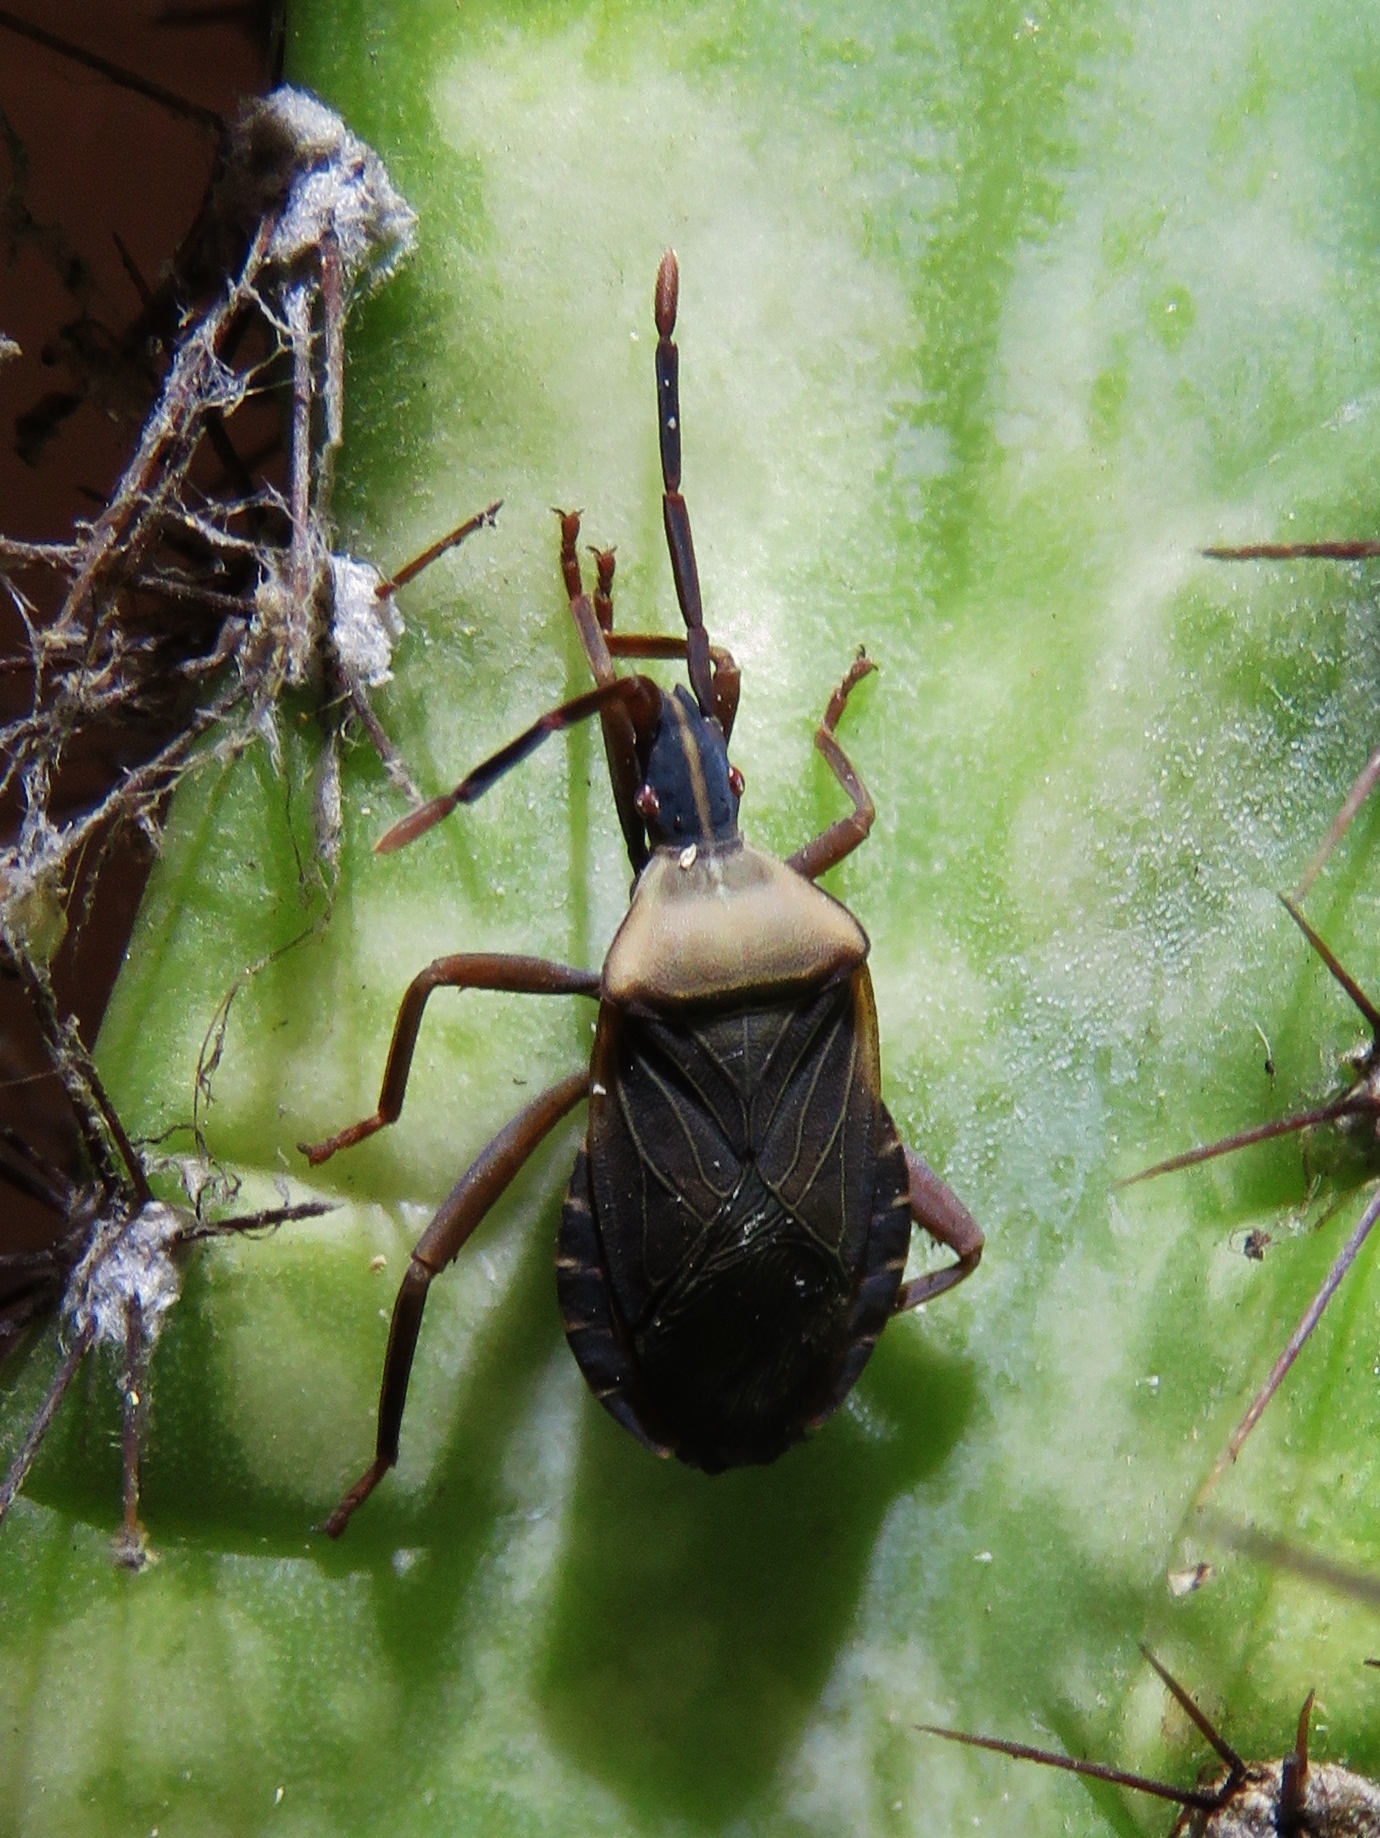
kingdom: Animalia
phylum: Arthropoda
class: Insecta
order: Hemiptera
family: Coreidae
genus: Chelinidea
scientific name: Chelinidea vittiger
